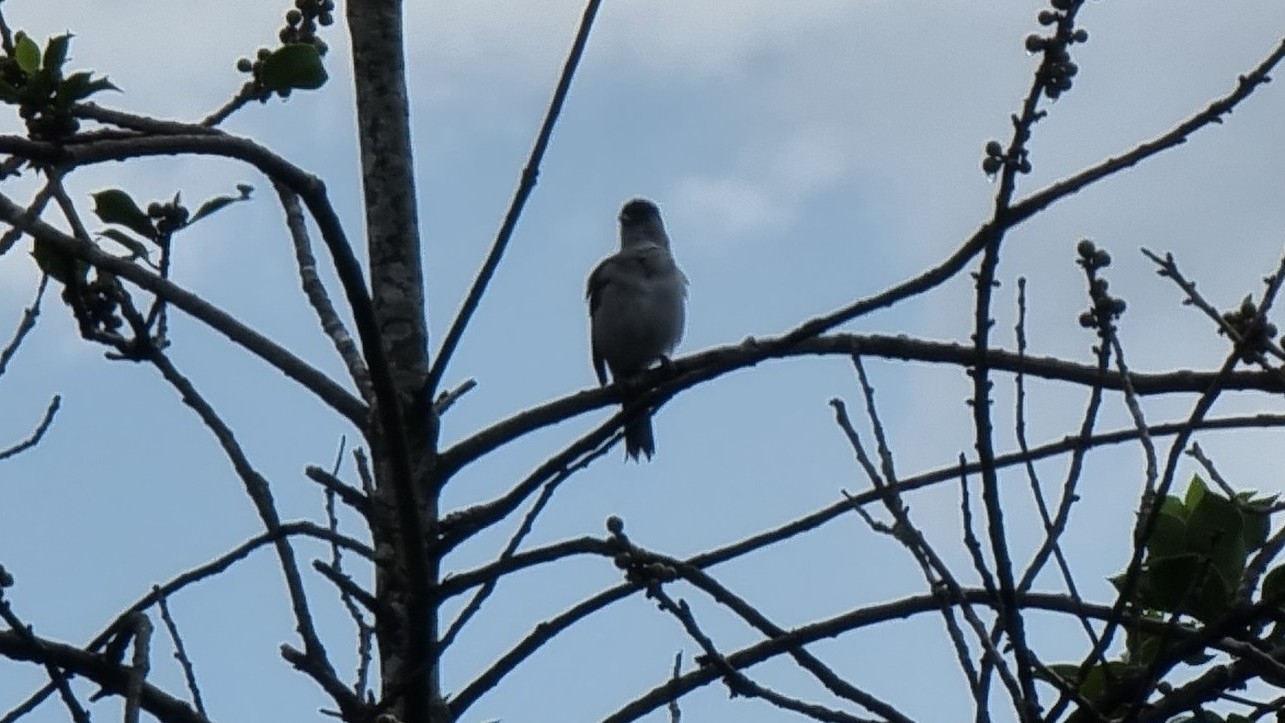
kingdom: Animalia
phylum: Chordata
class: Aves
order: Passeriformes
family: Sylviidae
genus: Sylvia
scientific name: Sylvia atricapilla
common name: Eurasian blackcap
